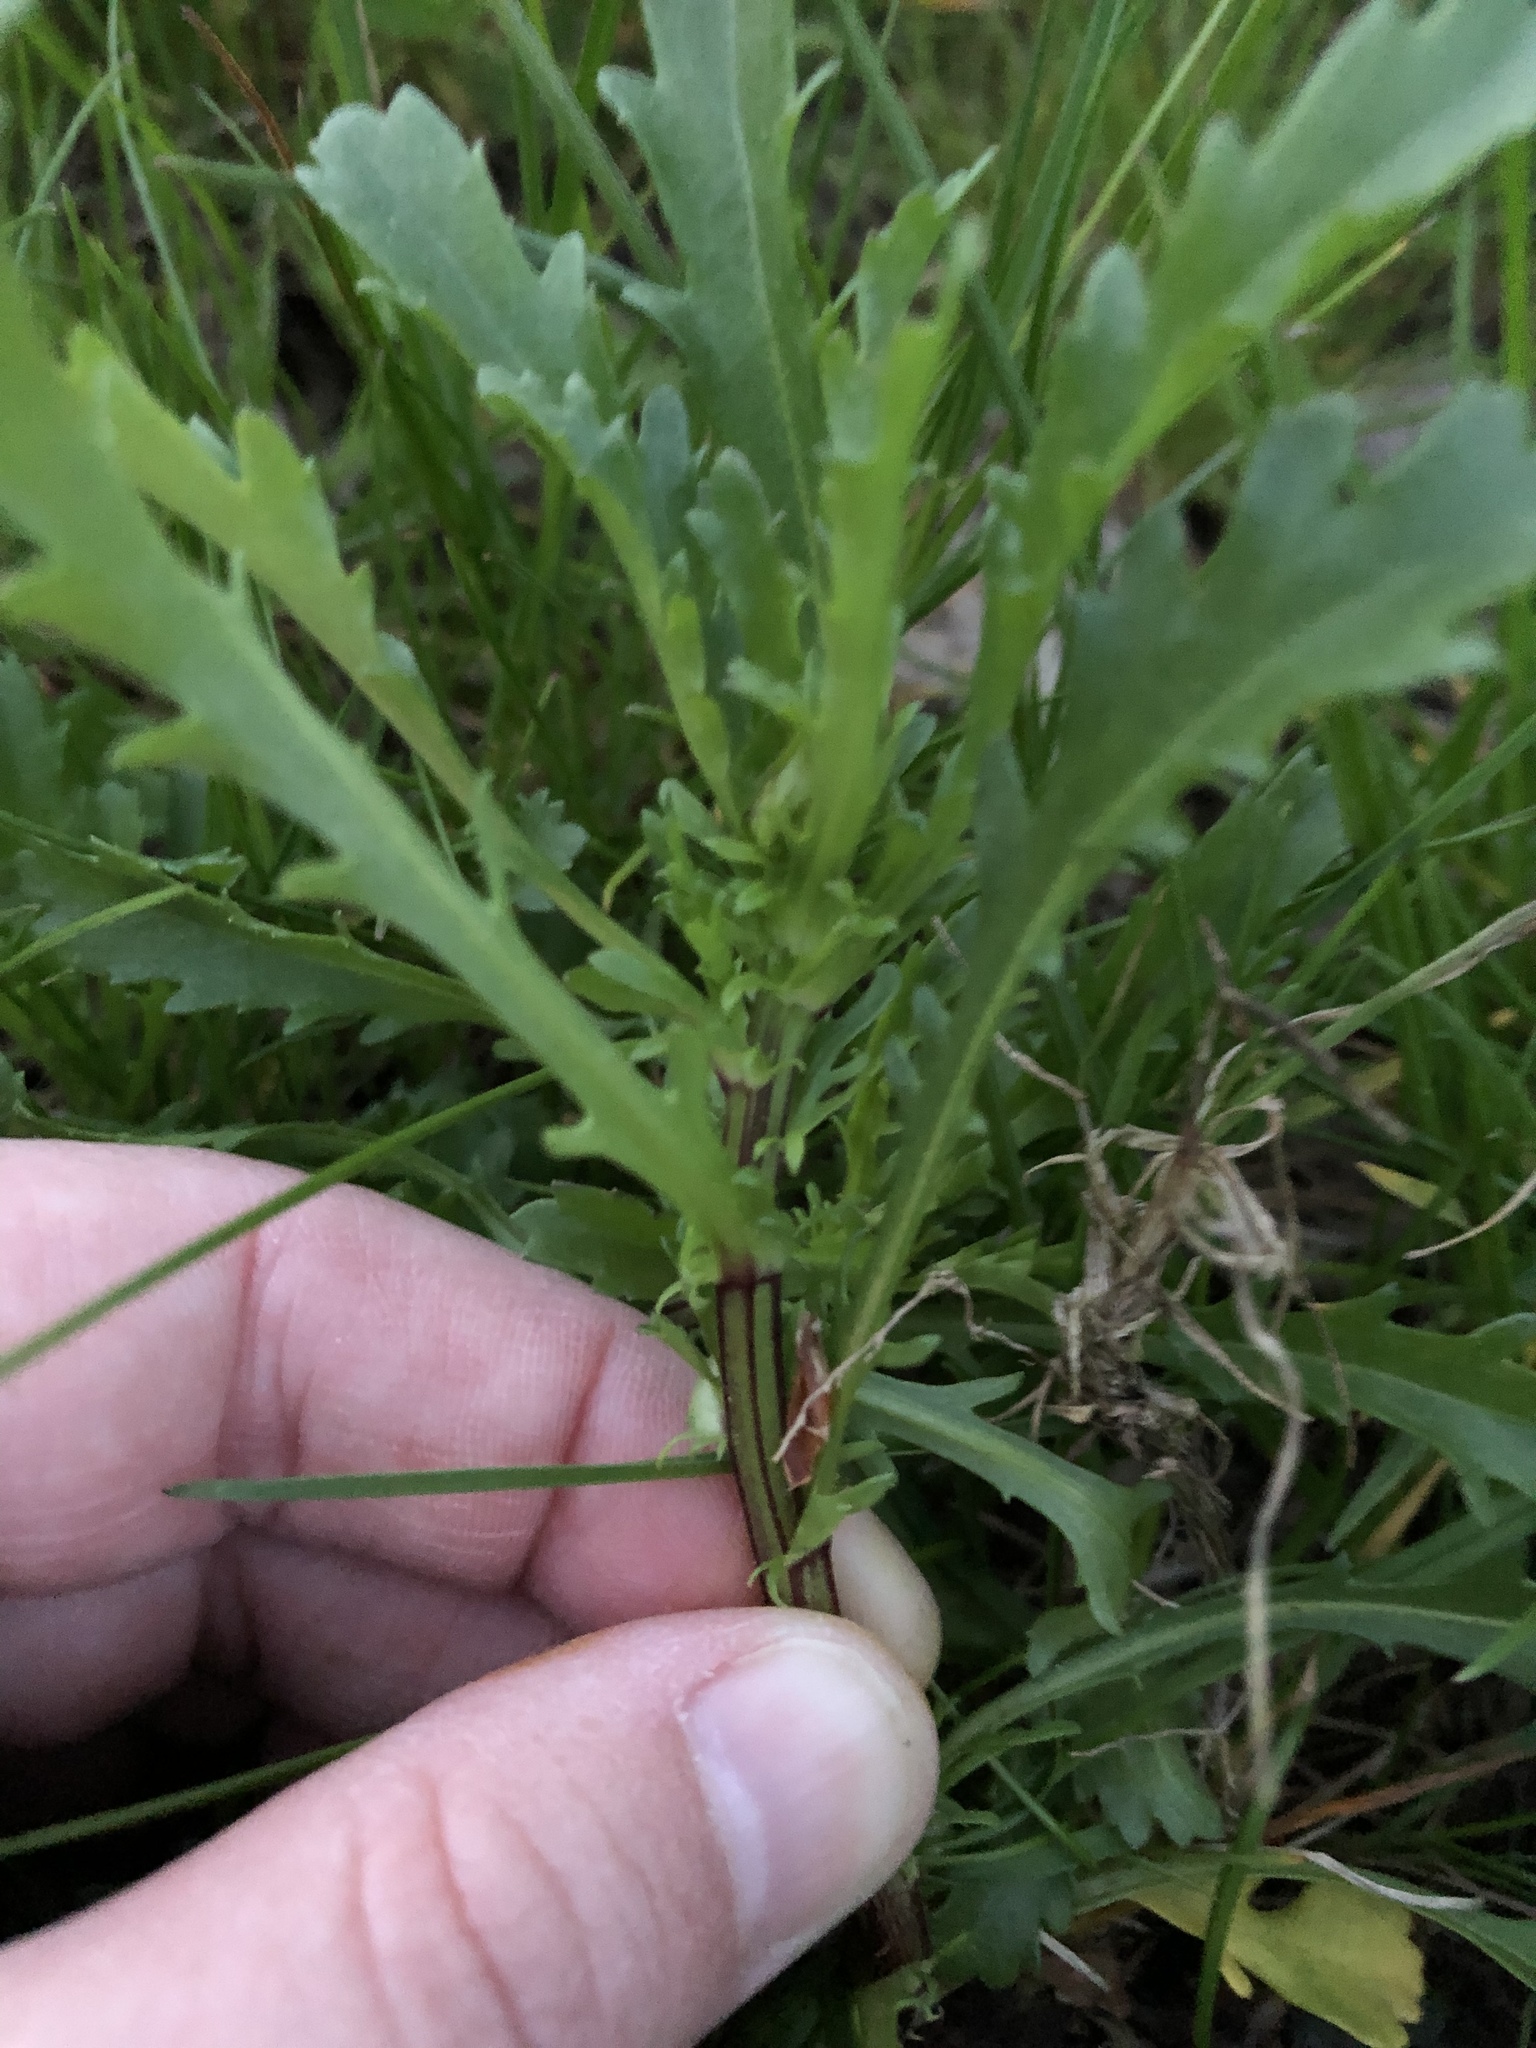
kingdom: Plantae
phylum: Tracheophyta
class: Magnoliopsida
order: Asterales
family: Asteraceae
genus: Leucanthemum
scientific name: Leucanthemum vulgare
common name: Oxeye daisy
